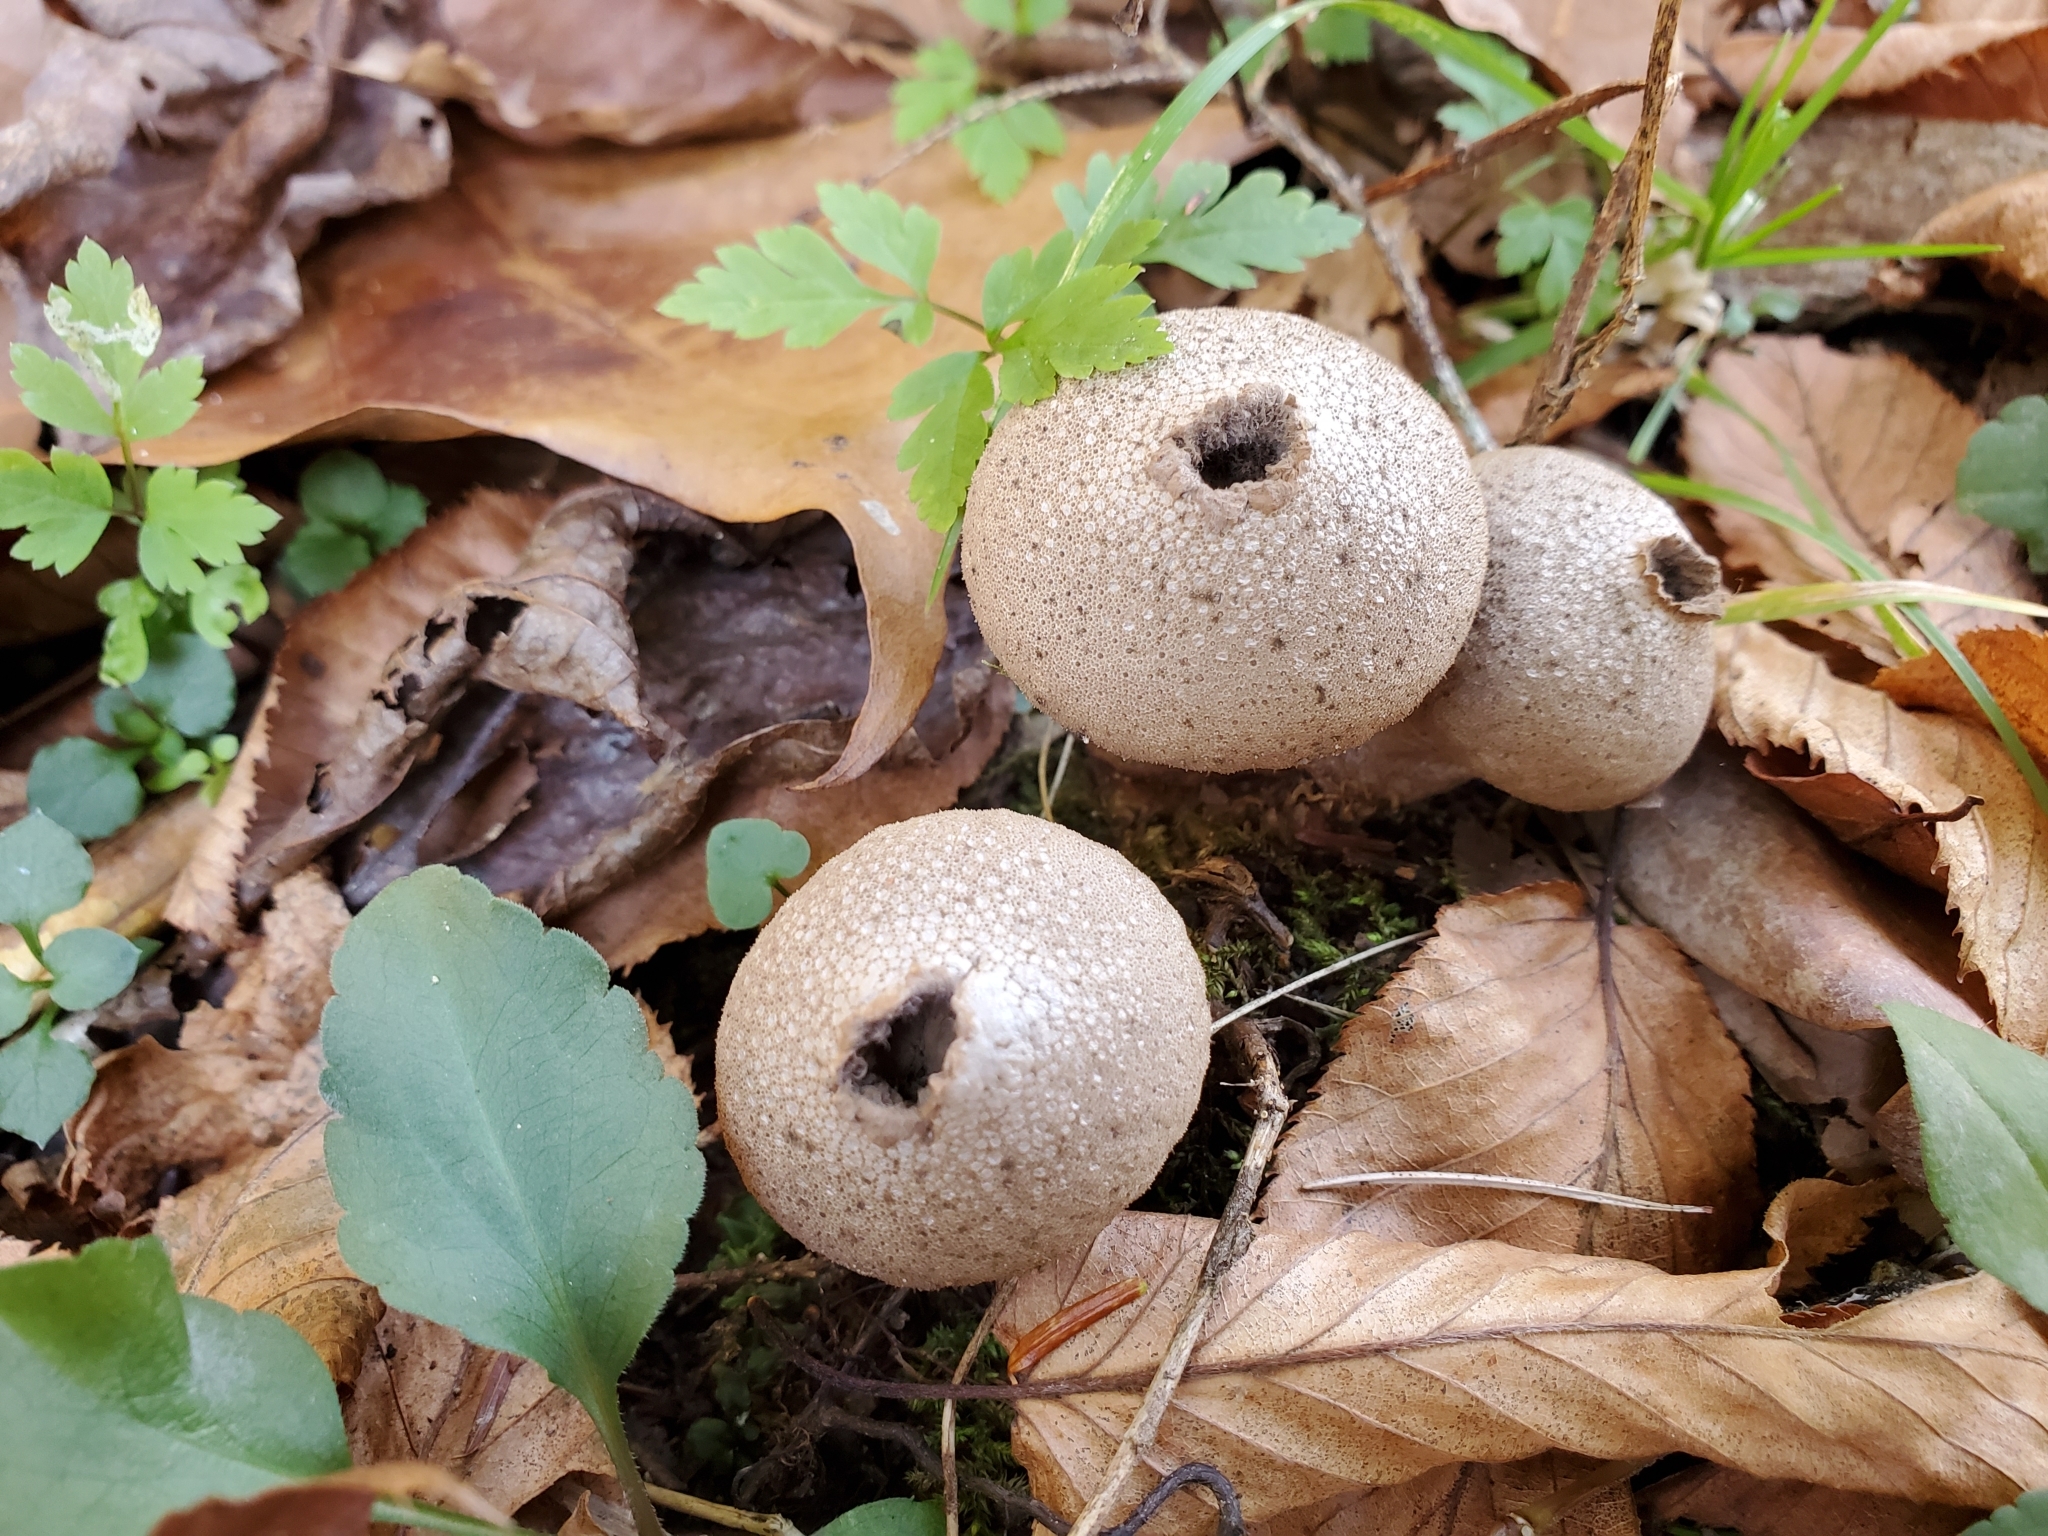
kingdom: Fungi
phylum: Basidiomycota
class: Agaricomycetes
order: Agaricales
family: Lycoperdaceae
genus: Lycoperdon
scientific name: Lycoperdon perlatum
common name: Common puffball
